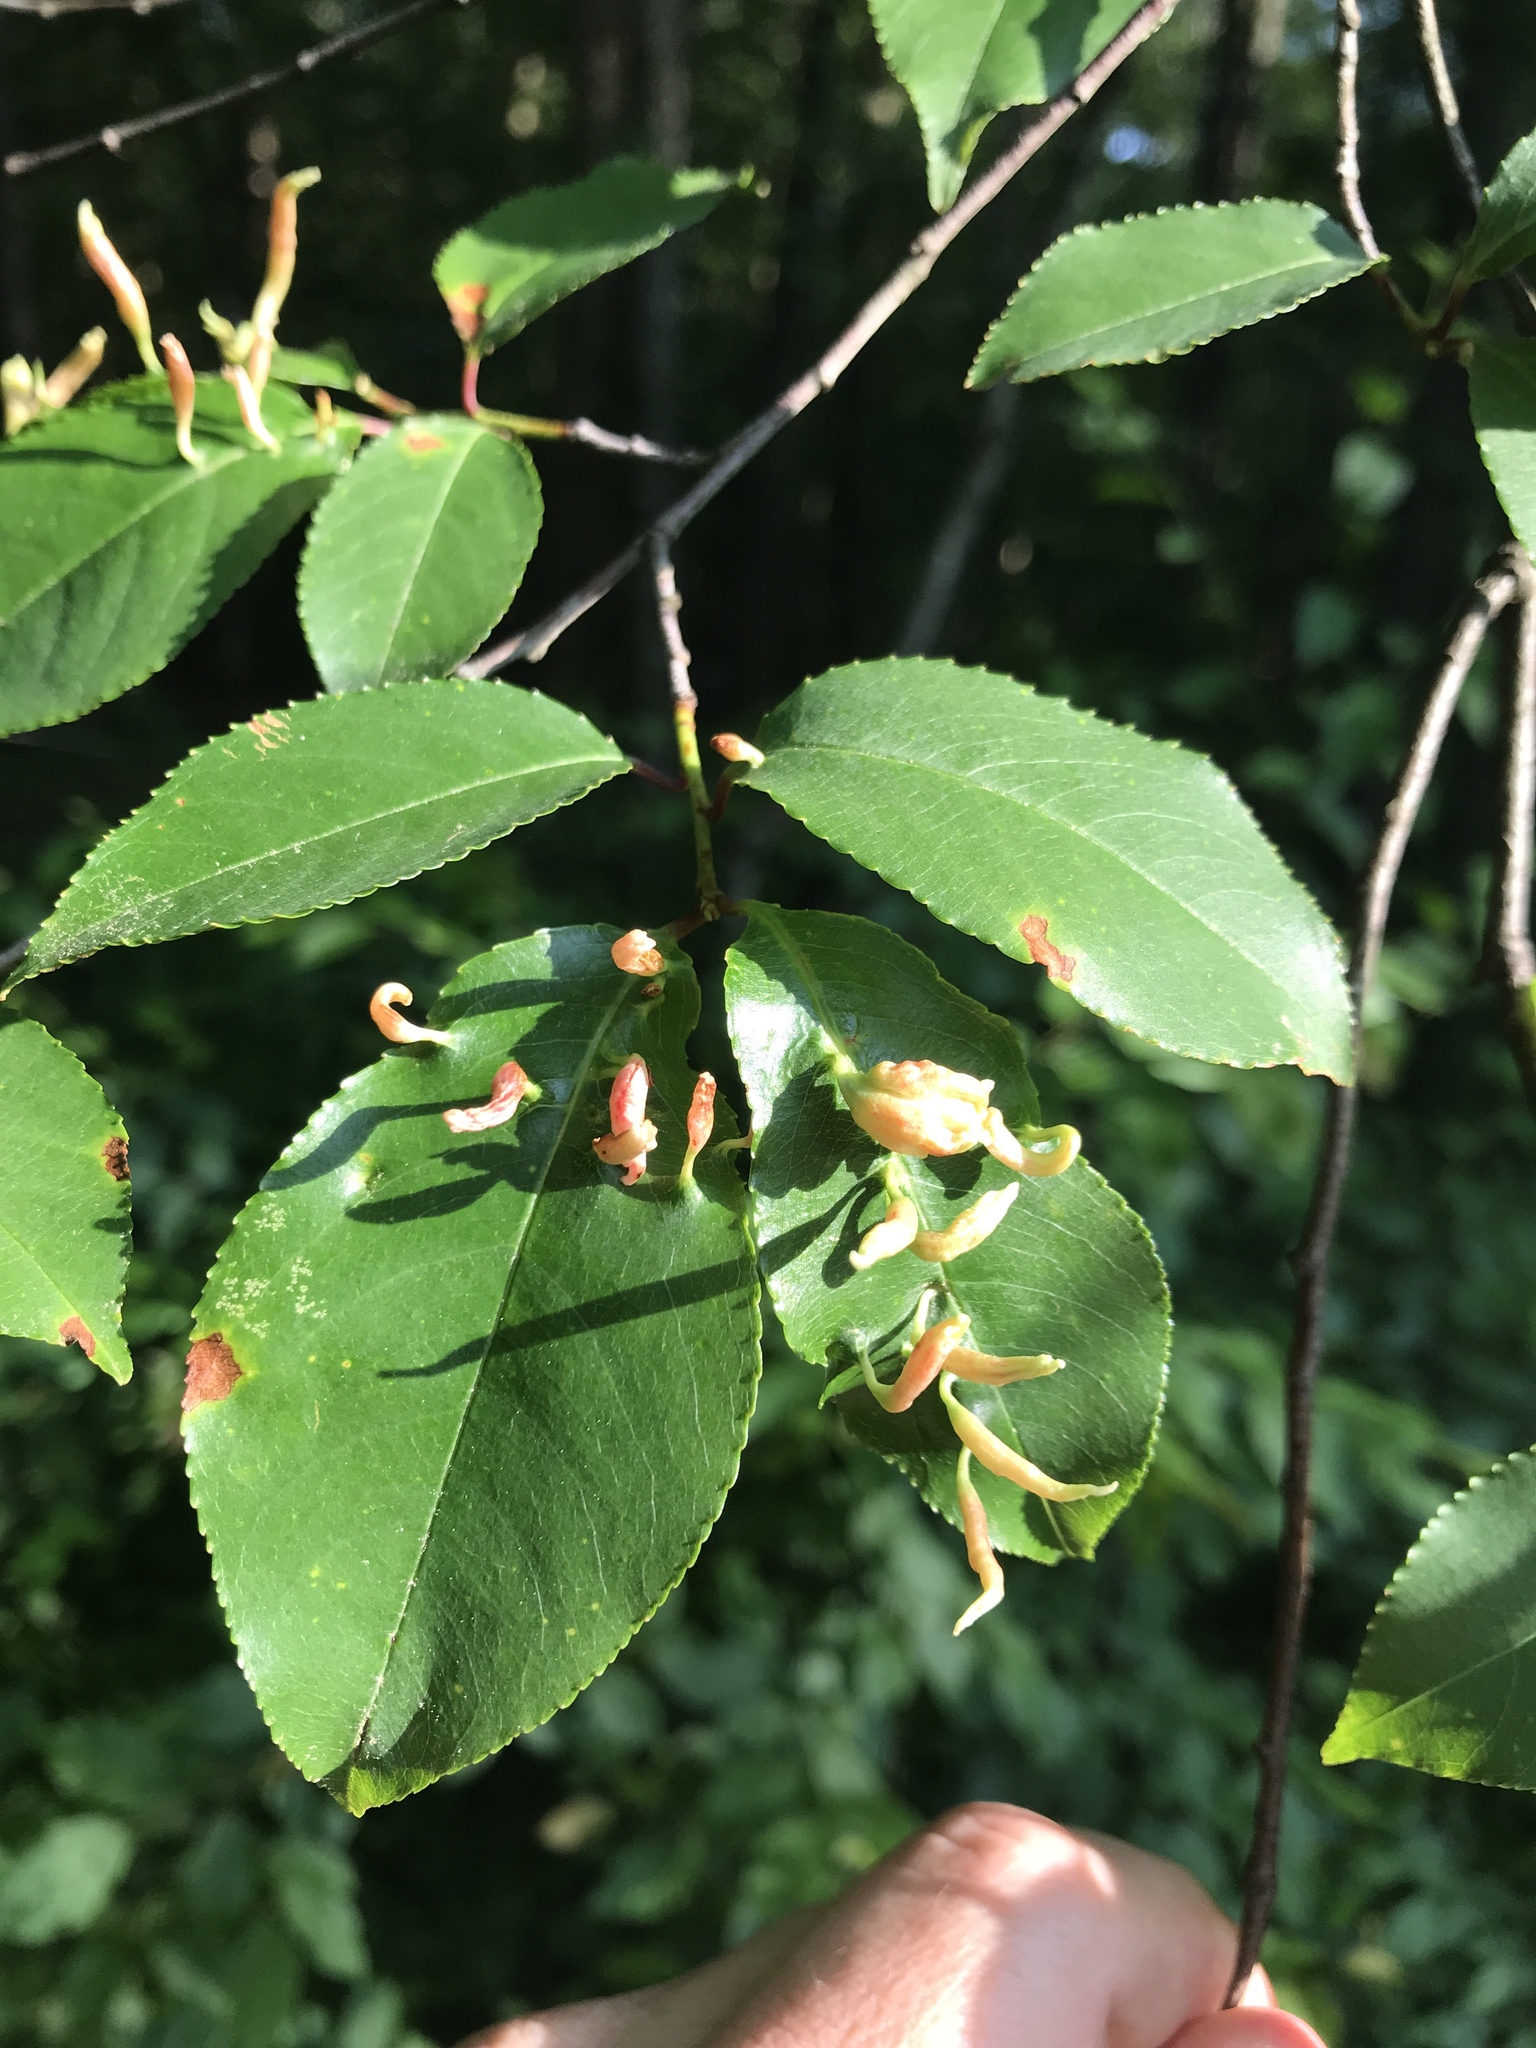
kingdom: Animalia
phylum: Arthropoda
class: Arachnida
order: Trombidiformes
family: Eriophyidae
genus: Eriophyes
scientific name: Eriophyes
